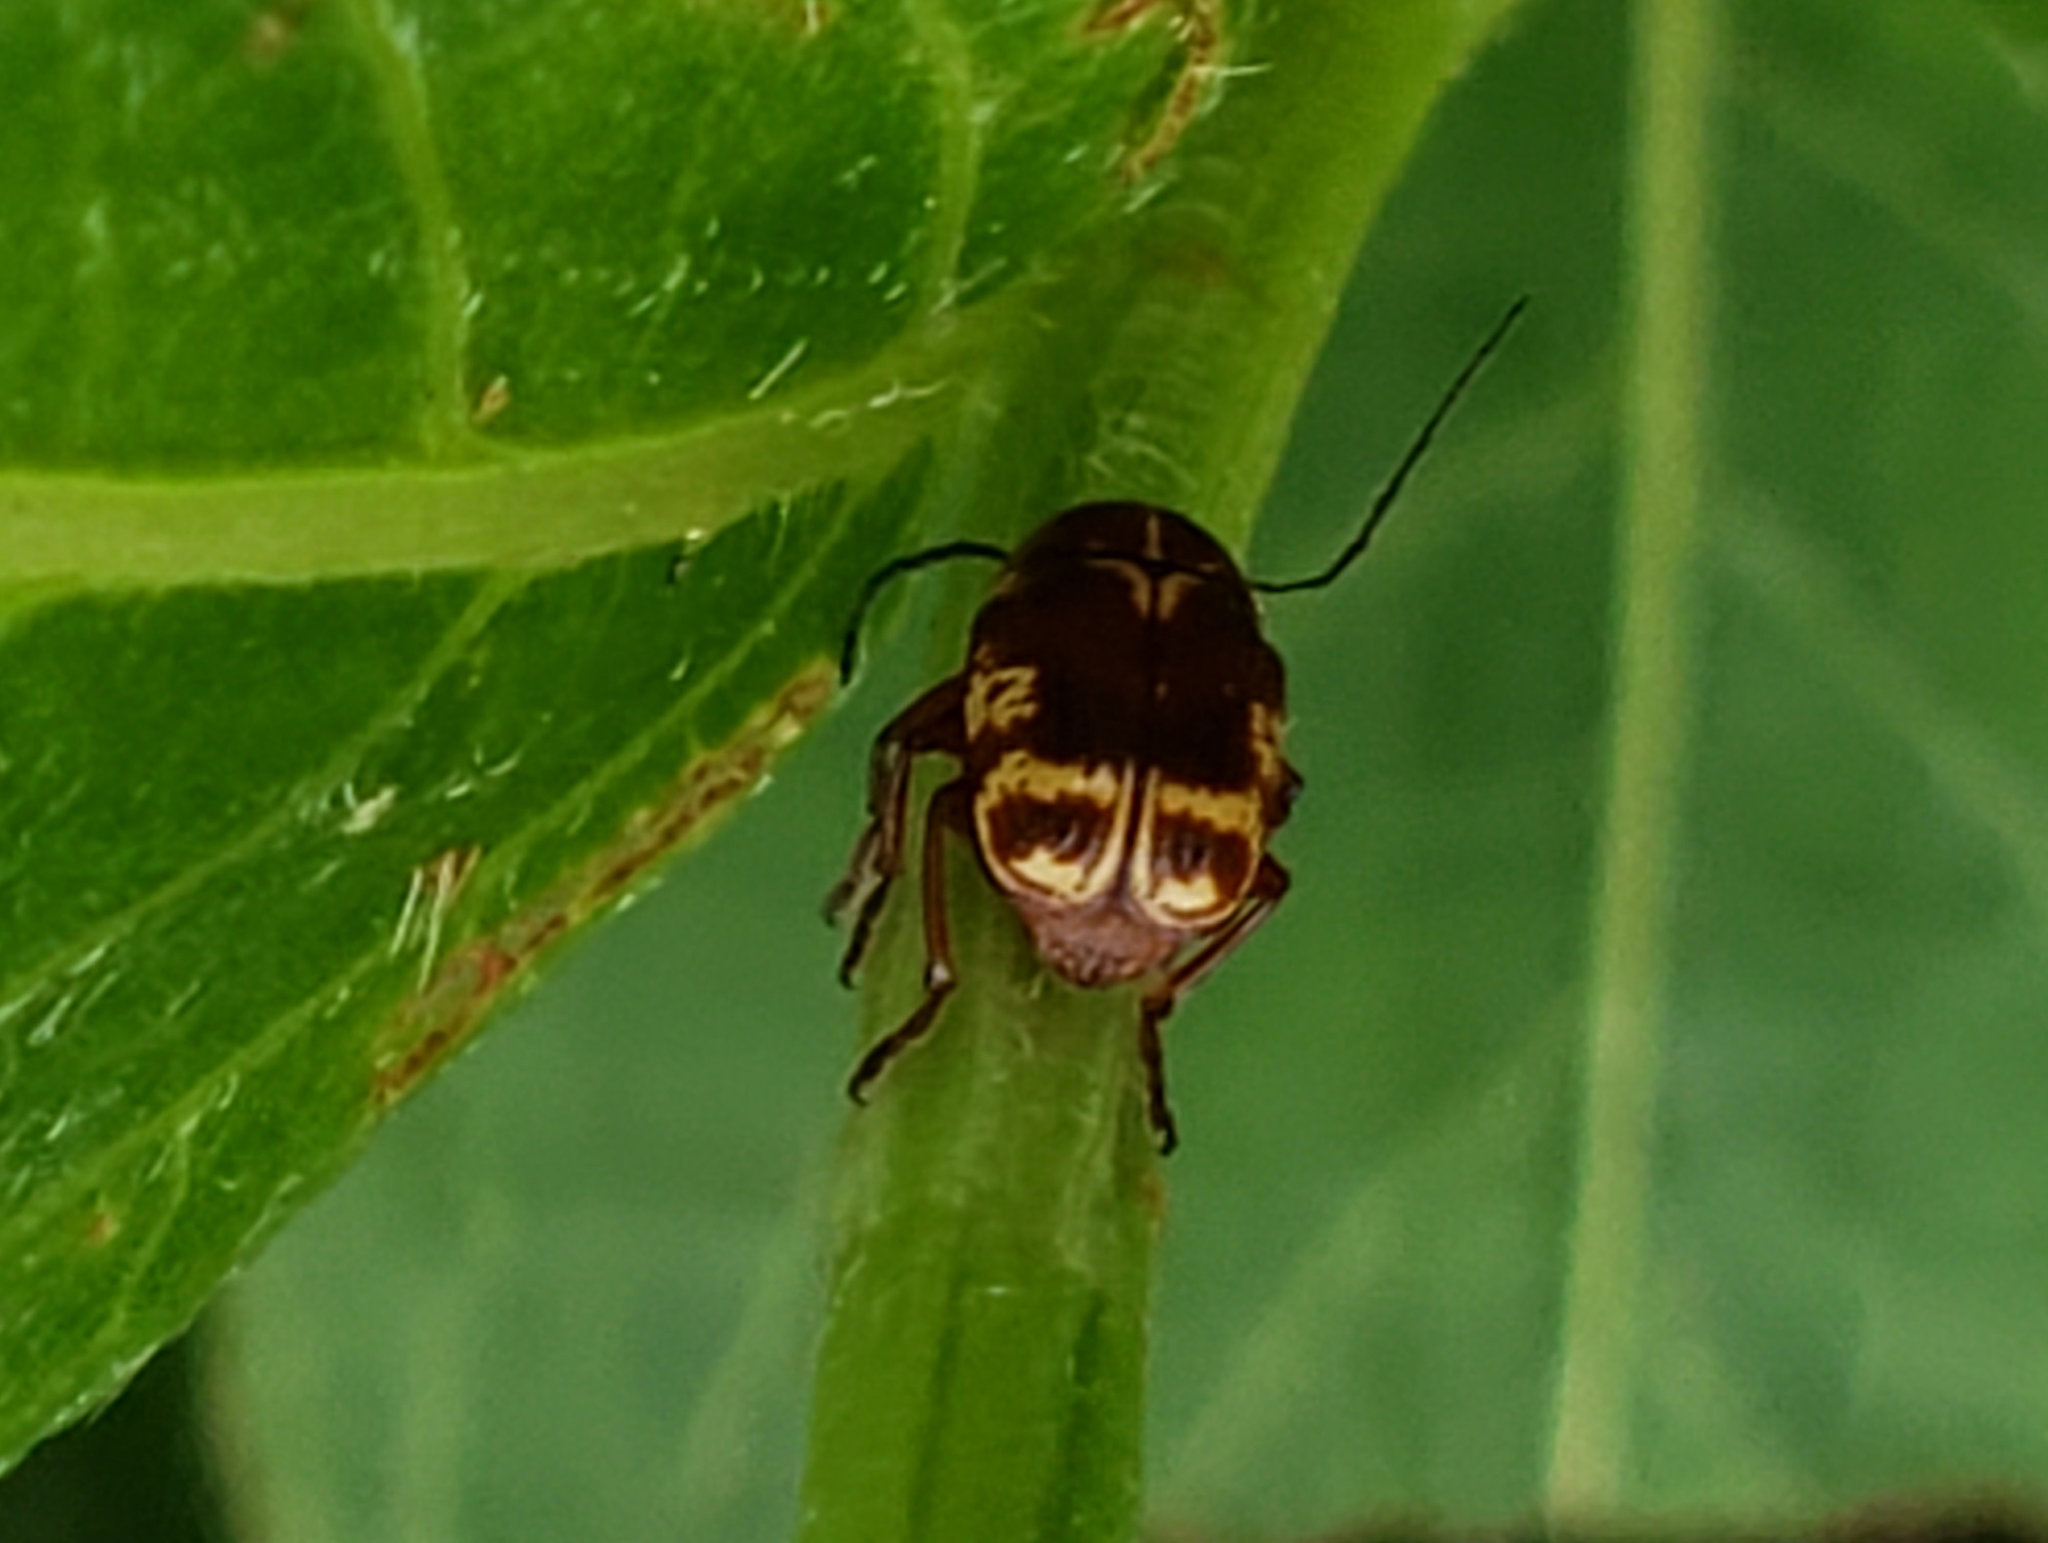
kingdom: Animalia
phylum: Arthropoda
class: Insecta
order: Coleoptera
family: Chrysomelidae
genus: Cryptocephalus
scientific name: Cryptocephalus castaneus
